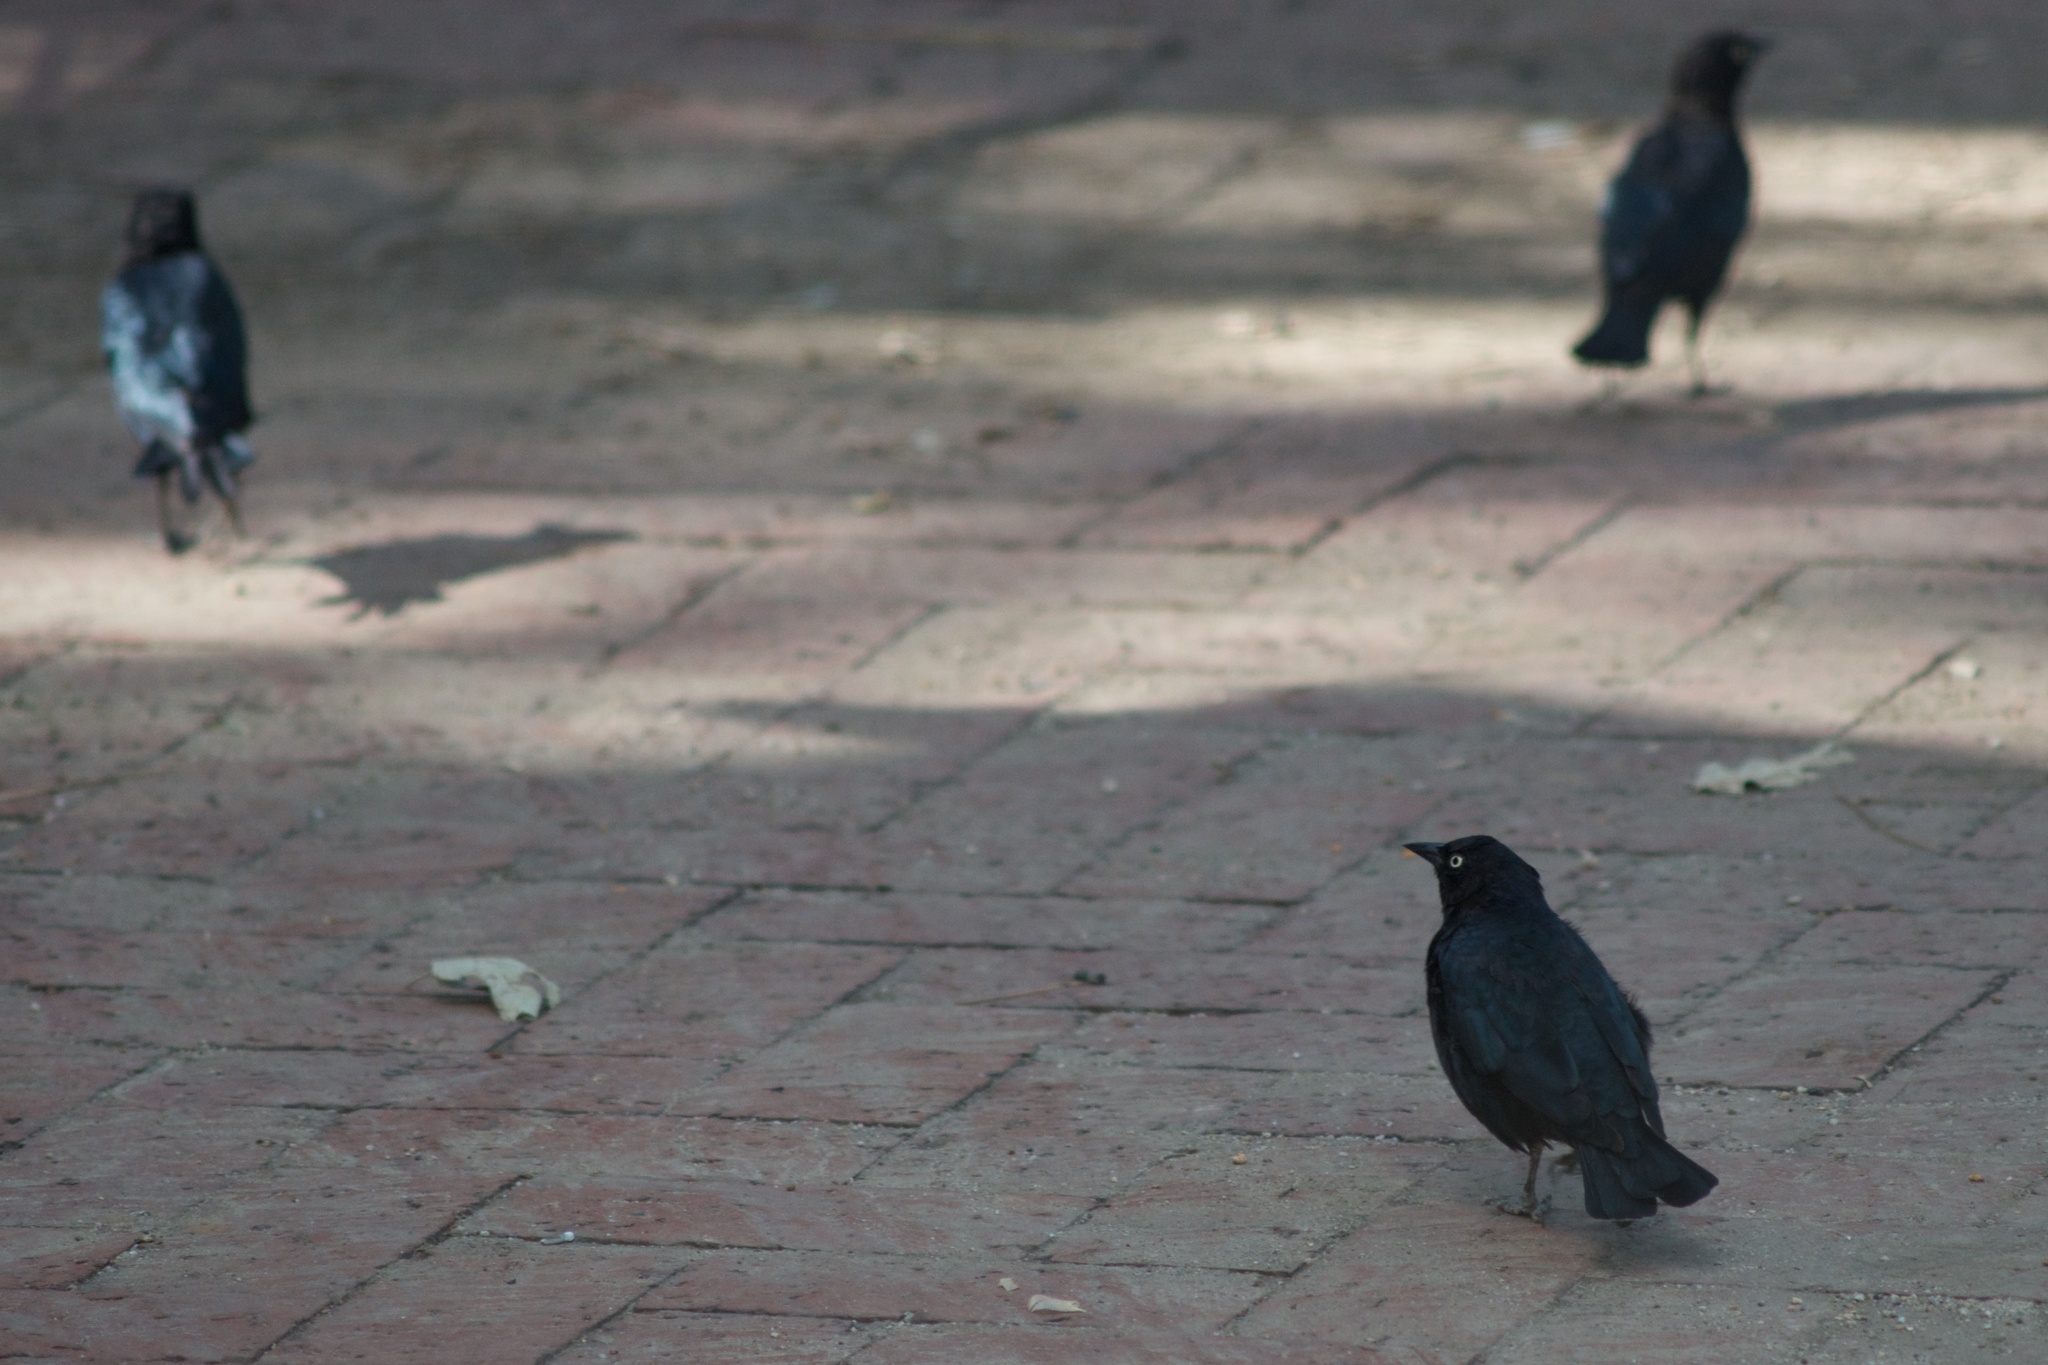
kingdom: Animalia
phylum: Chordata
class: Aves
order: Passeriformes
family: Icteridae
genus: Euphagus
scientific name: Euphagus cyanocephalus
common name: Brewer's blackbird
